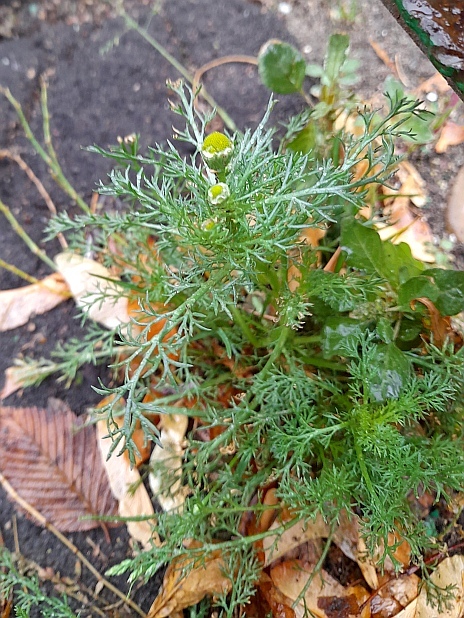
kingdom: Plantae
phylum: Tracheophyta
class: Magnoliopsida
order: Asterales
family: Asteraceae
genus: Matricaria
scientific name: Matricaria discoidea
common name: Disc mayweed
